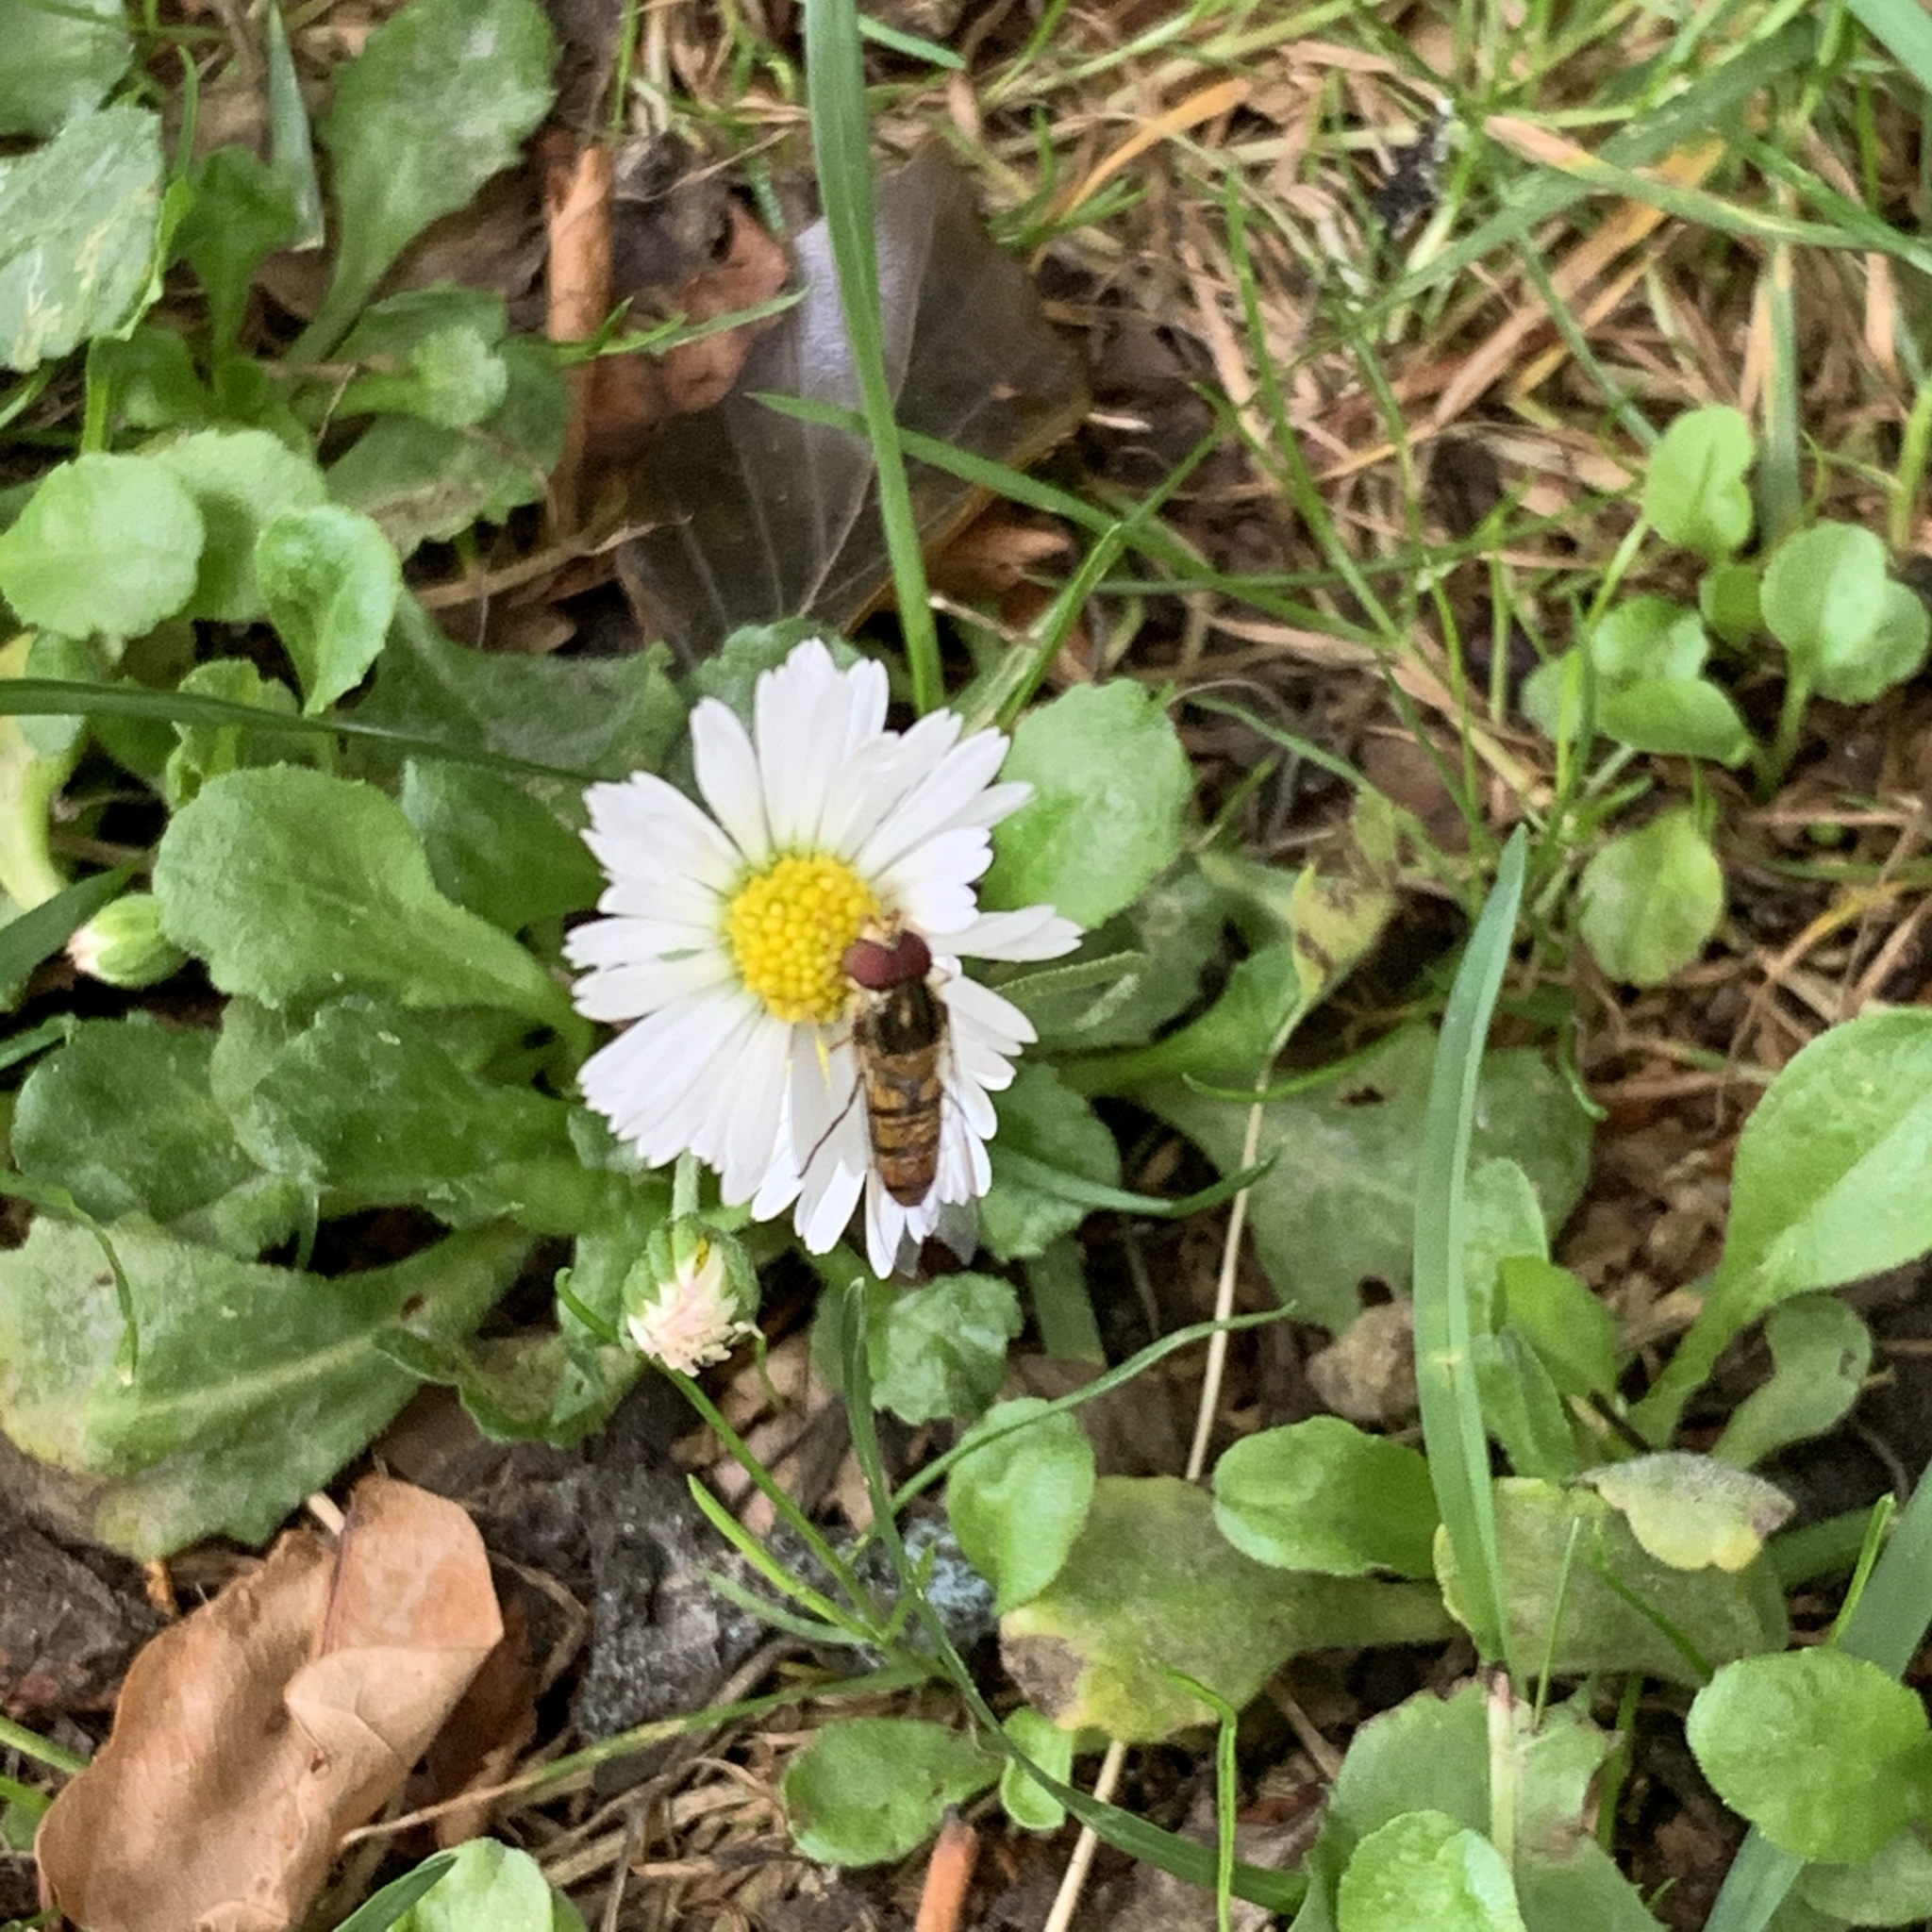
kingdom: Animalia
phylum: Arthropoda
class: Insecta
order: Diptera
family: Syrphidae
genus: Episyrphus
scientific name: Episyrphus balteatus
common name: Marmalade hoverfly
